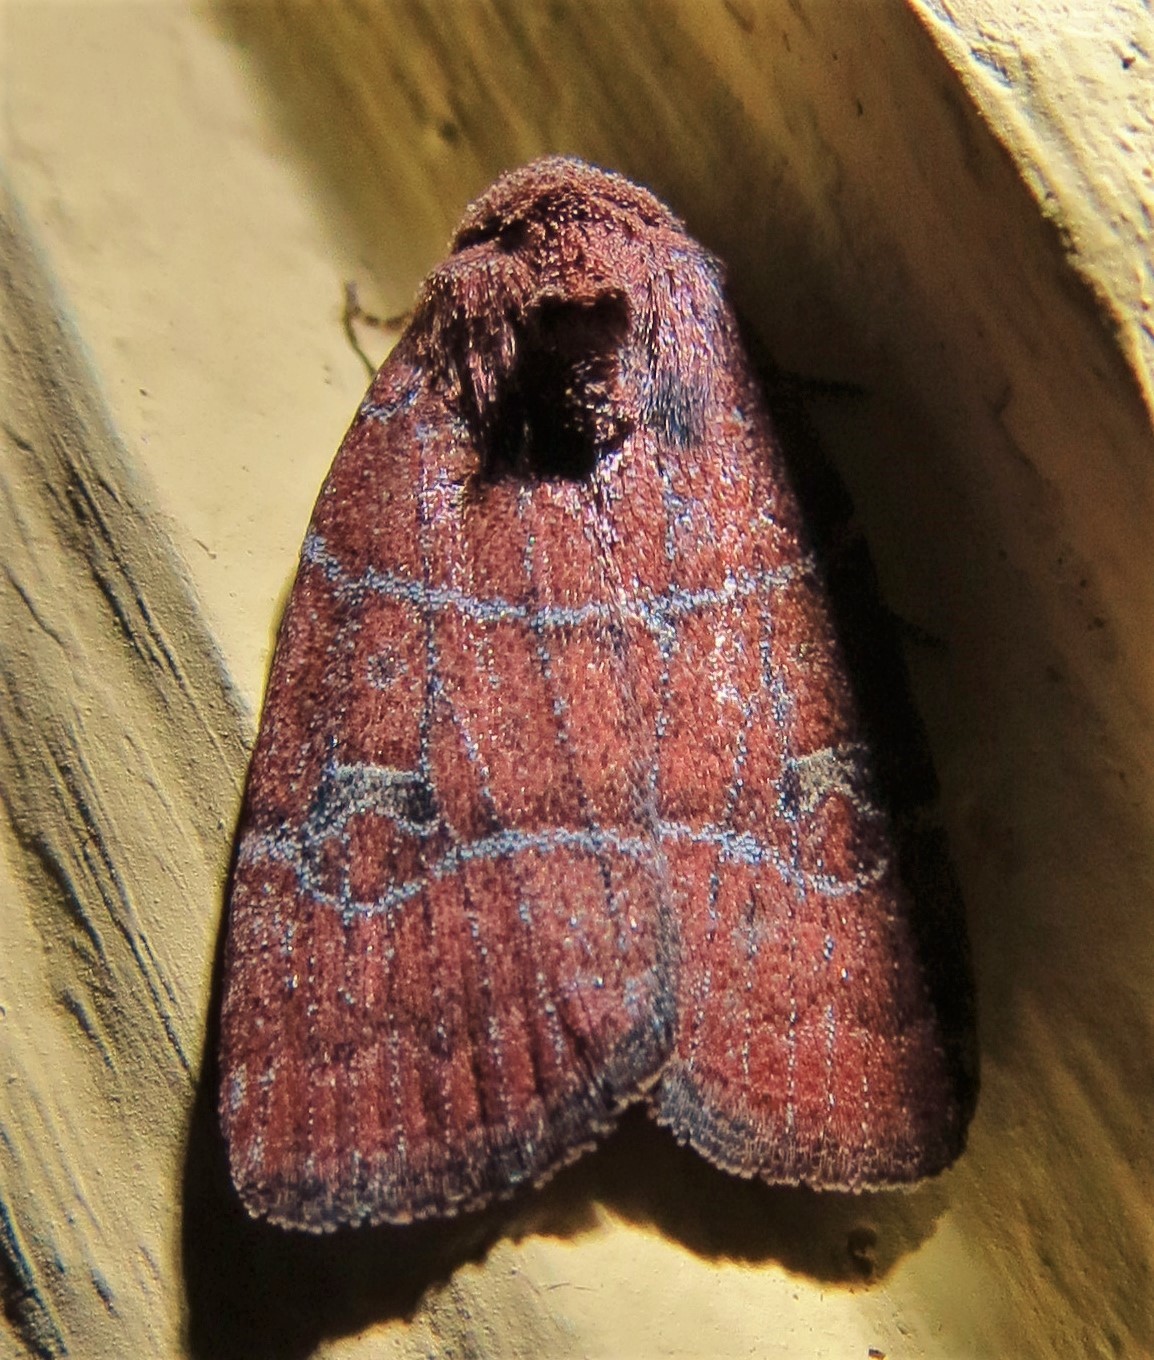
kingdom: Animalia
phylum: Arthropoda
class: Insecta
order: Lepidoptera
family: Noctuidae
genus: Elaphria
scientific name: Elaphria grata
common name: Grateful midget moth
